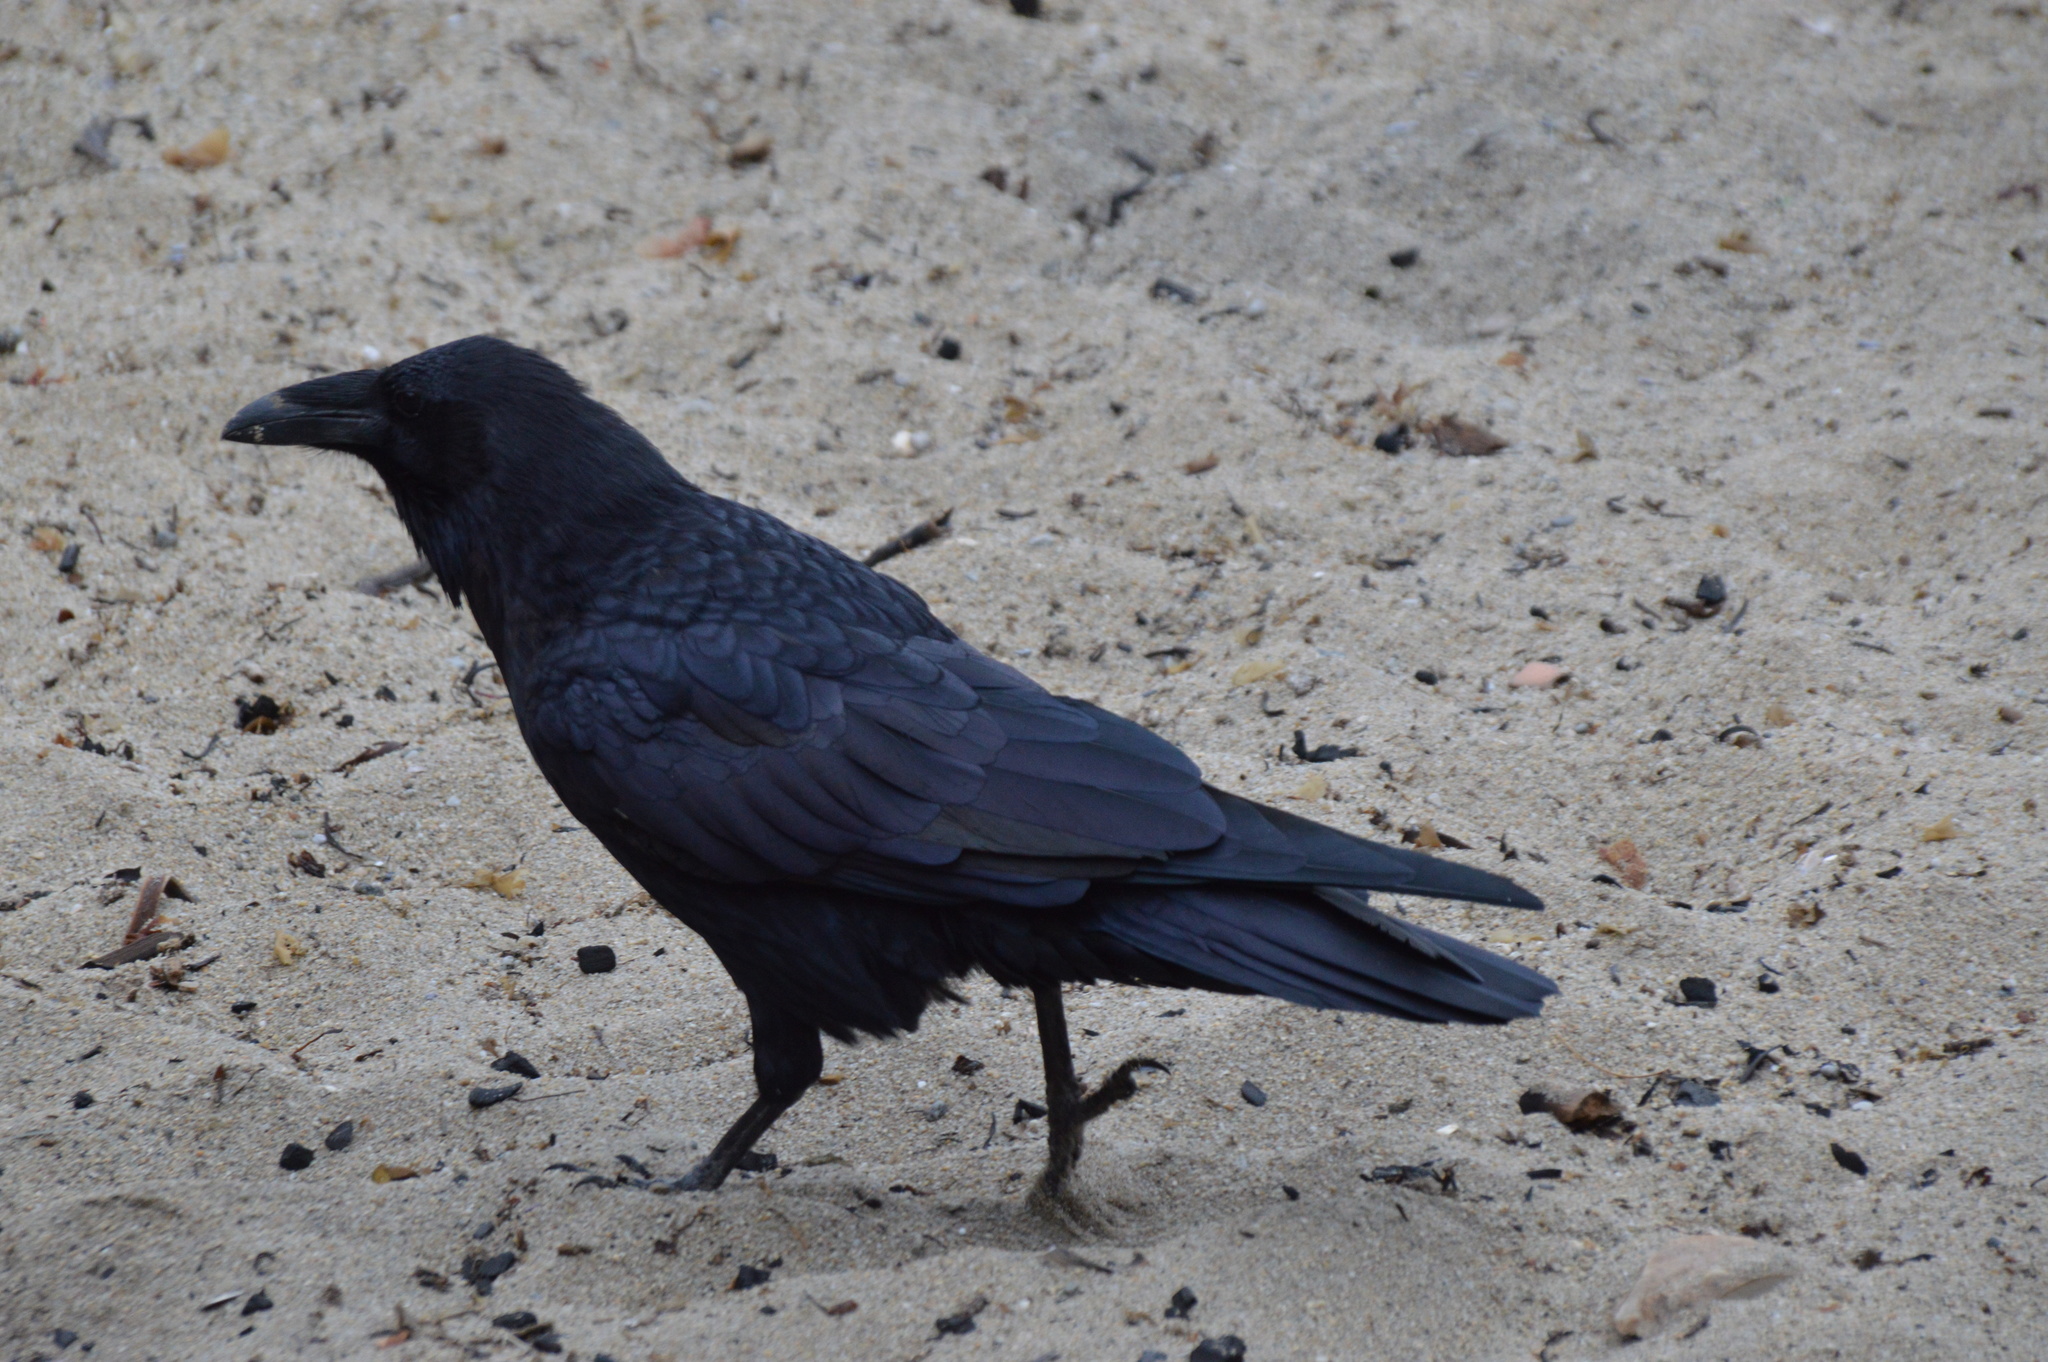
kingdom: Animalia
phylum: Chordata
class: Aves
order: Passeriformes
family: Corvidae
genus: Corvus
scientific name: Corvus corax
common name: Common raven
